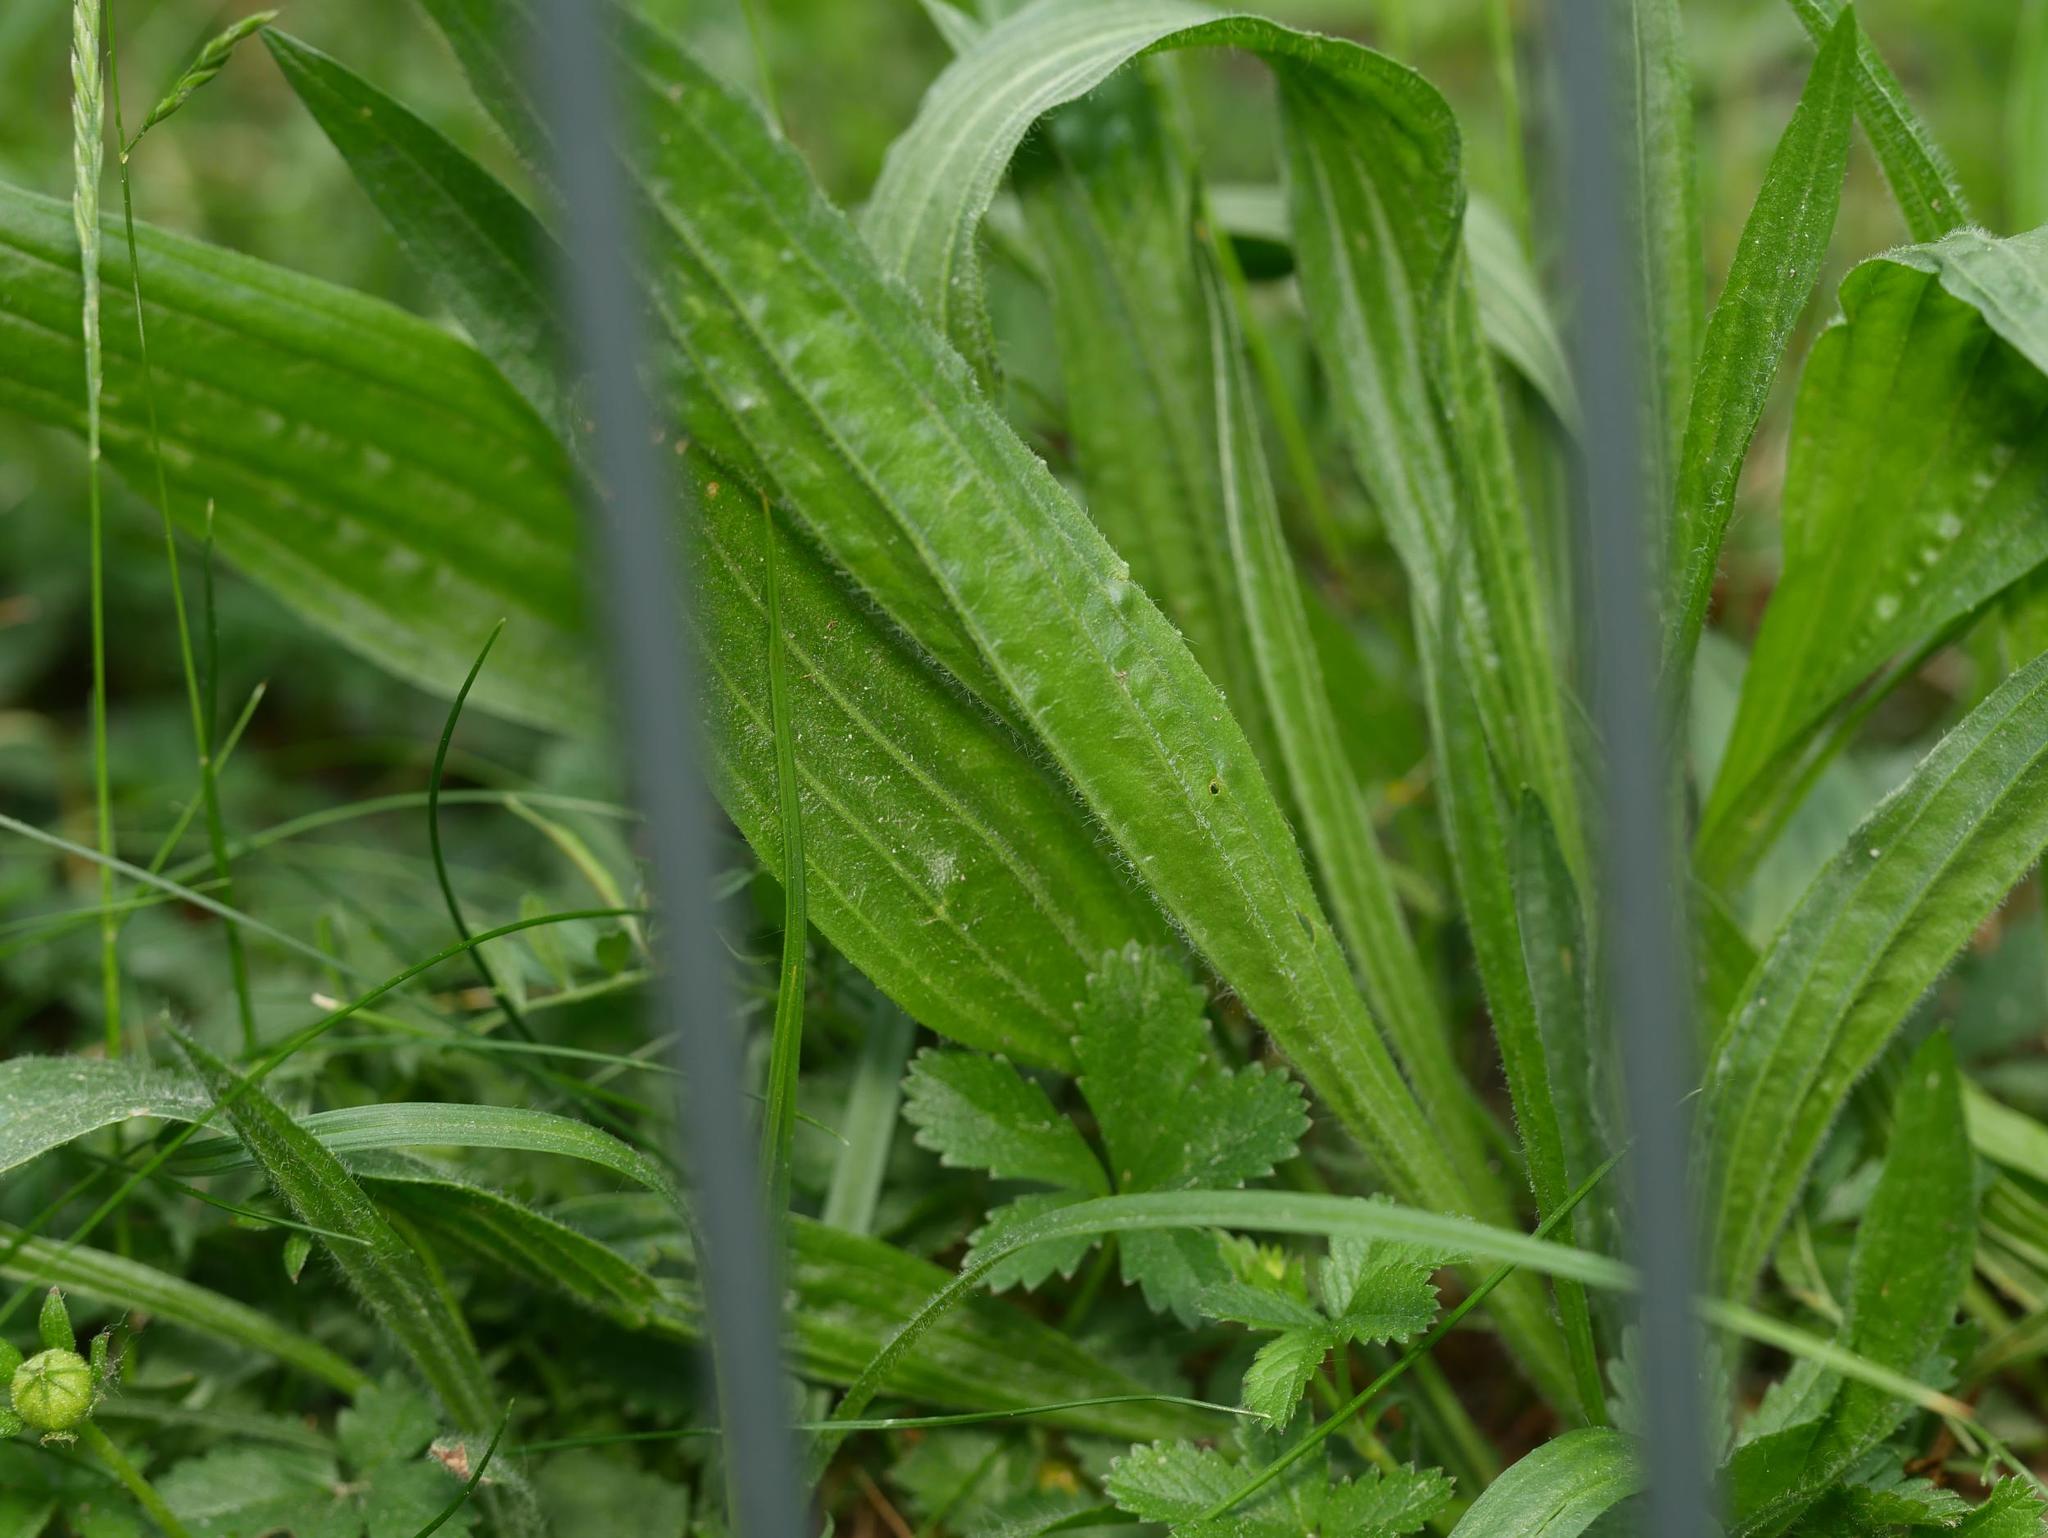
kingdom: Plantae
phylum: Tracheophyta
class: Magnoliopsida
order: Lamiales
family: Plantaginaceae
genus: Plantago
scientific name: Plantago lanceolata
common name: Ribwort plantain
